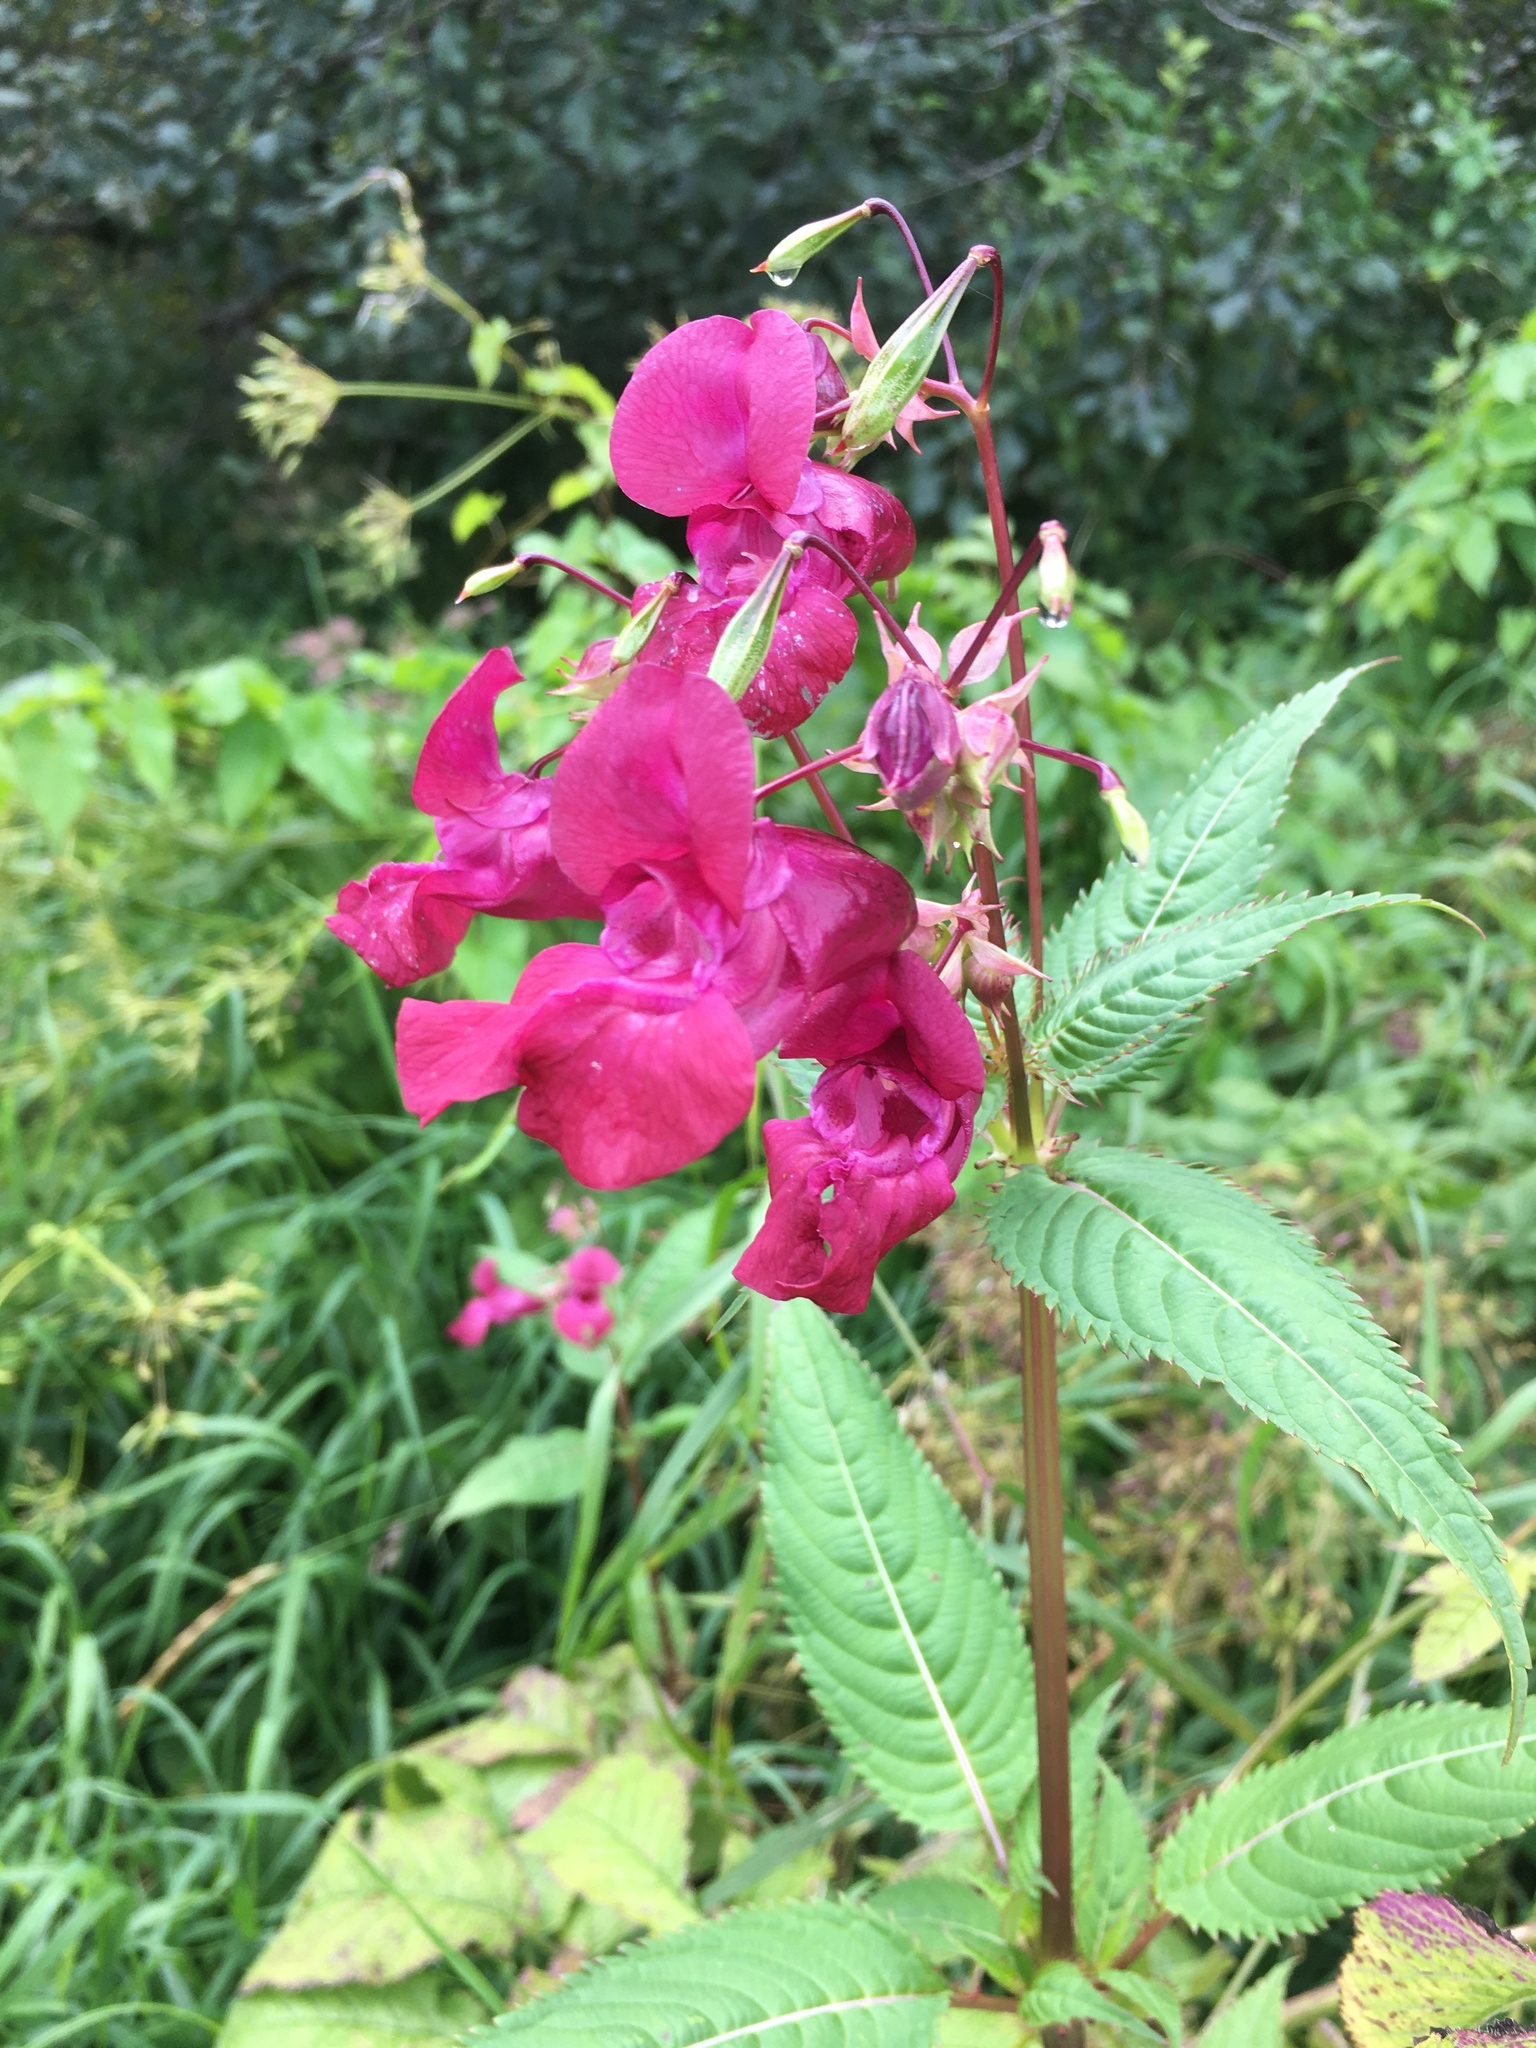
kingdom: Plantae
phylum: Tracheophyta
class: Magnoliopsida
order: Ericales
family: Balsaminaceae
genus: Impatiens
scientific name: Impatiens glandulifera
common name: Himalayan balsam
